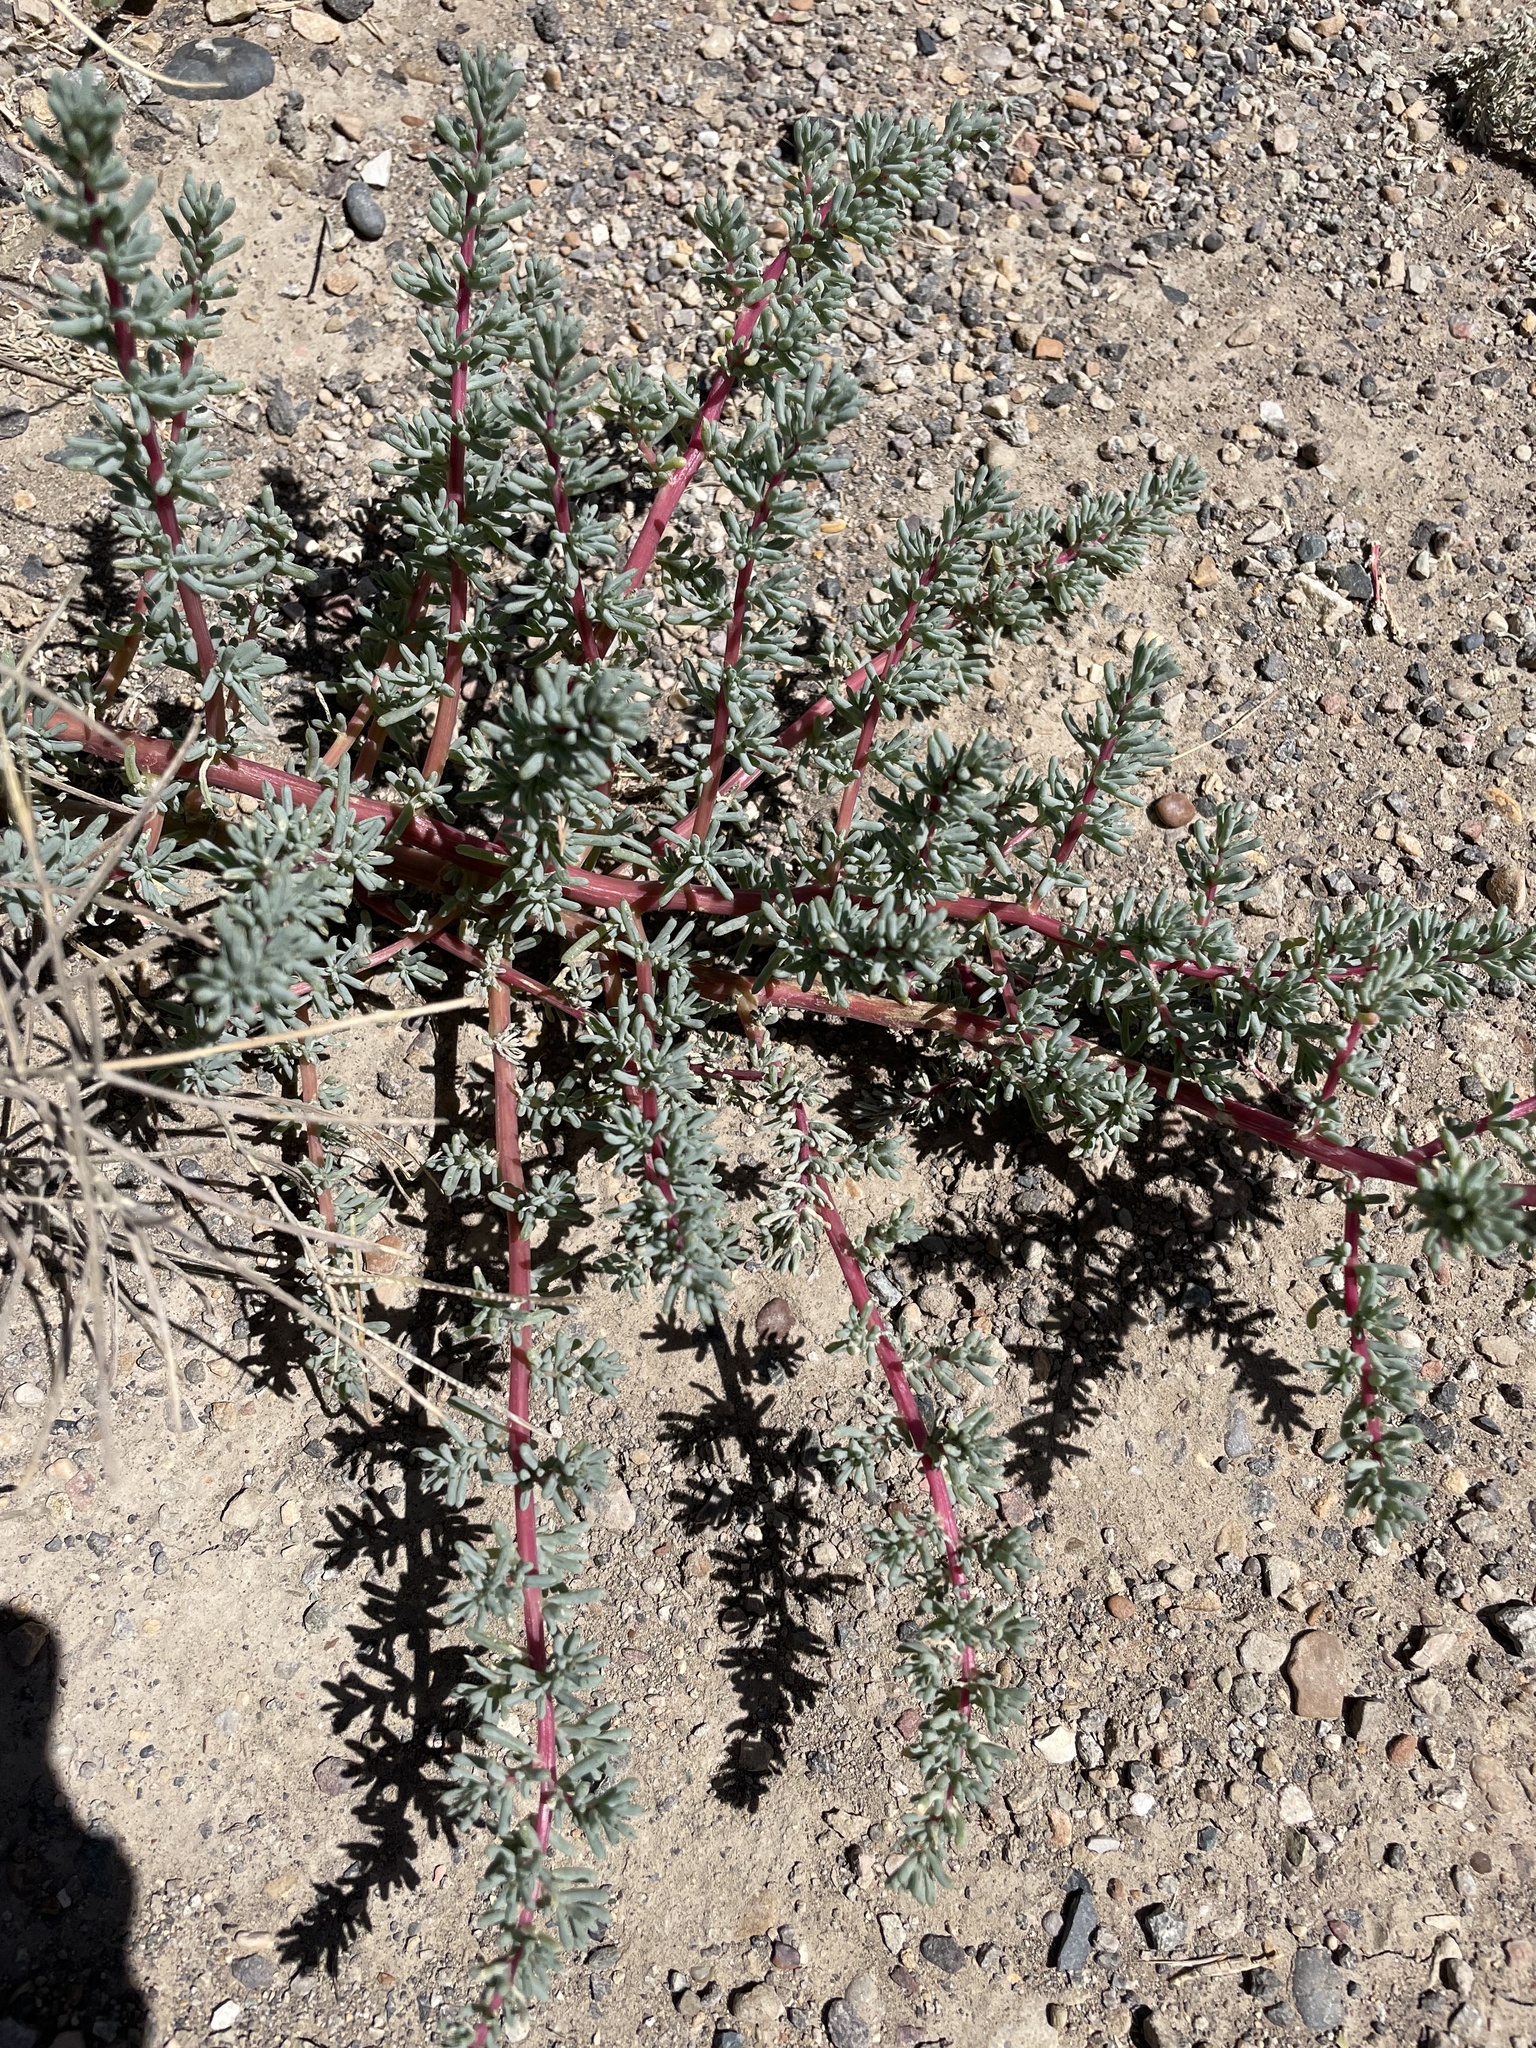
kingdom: Plantae
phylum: Tracheophyta
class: Magnoliopsida
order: Caryophyllales
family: Amaranthaceae
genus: Halogeton
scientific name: Halogeton glomeratus
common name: Saltlover
